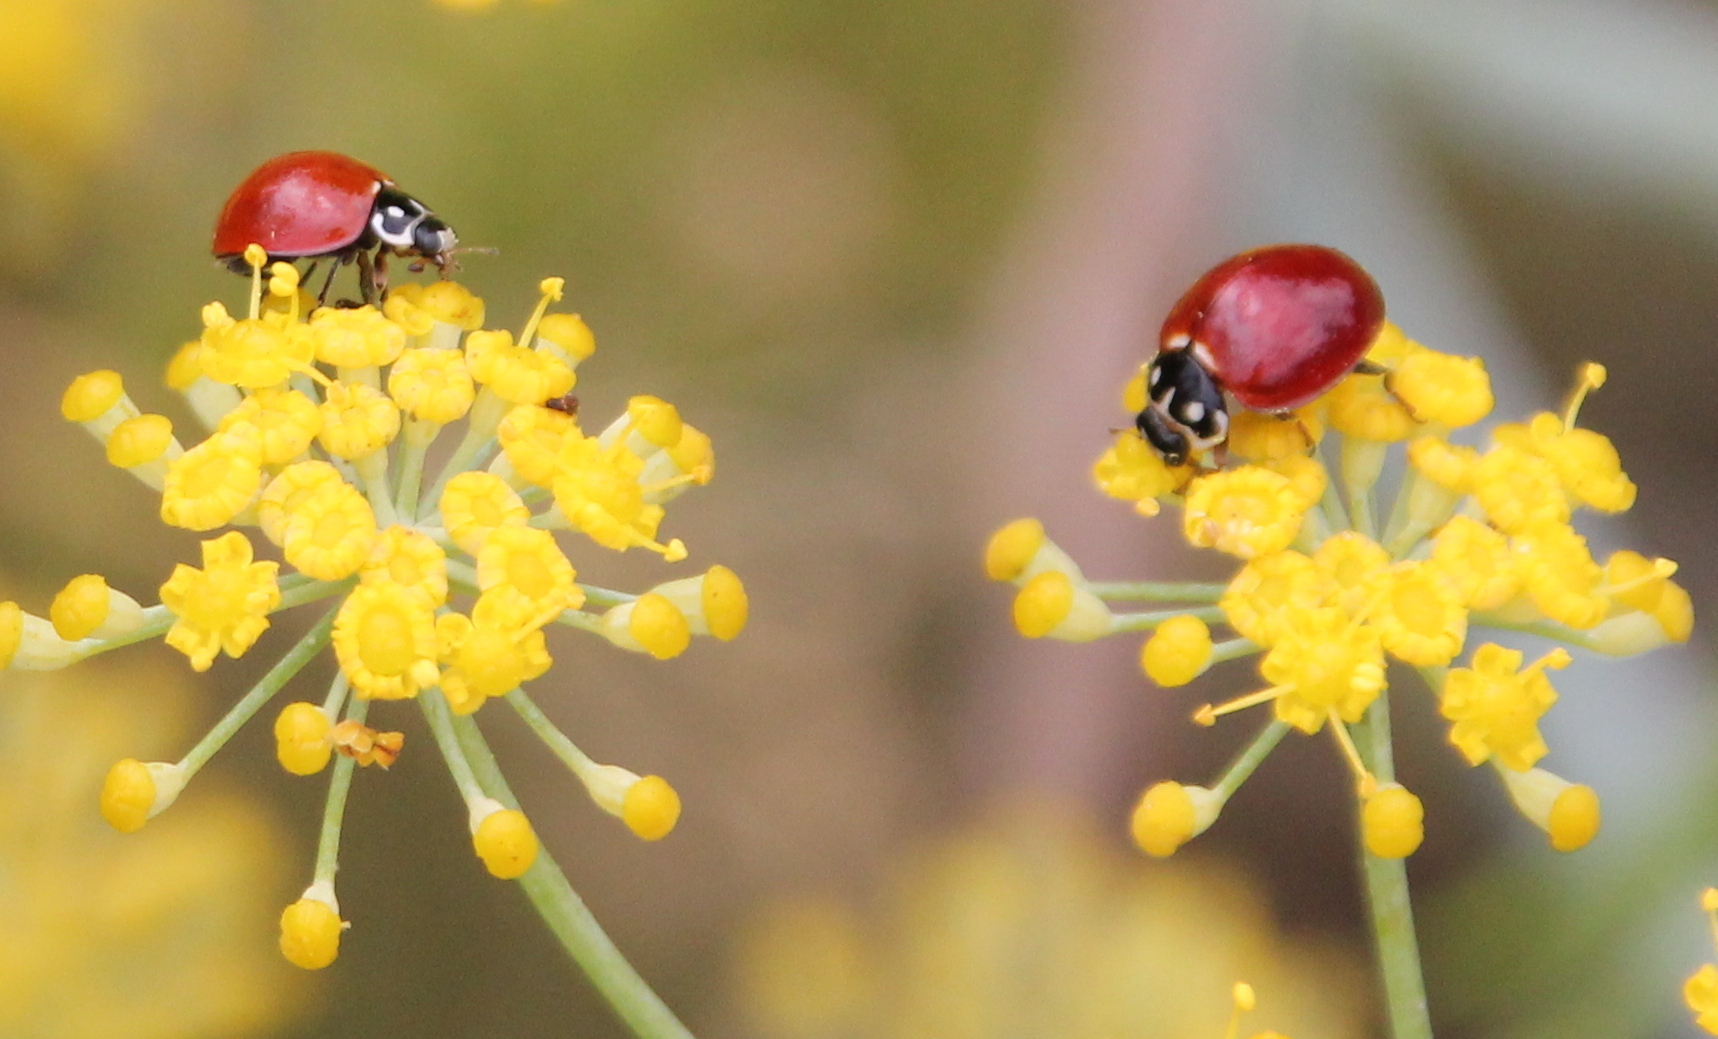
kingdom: Animalia
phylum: Arthropoda
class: Insecta
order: Coleoptera
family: Coccinellidae
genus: Cycloneda
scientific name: Cycloneda sanguinea
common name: Ladybird beetle
